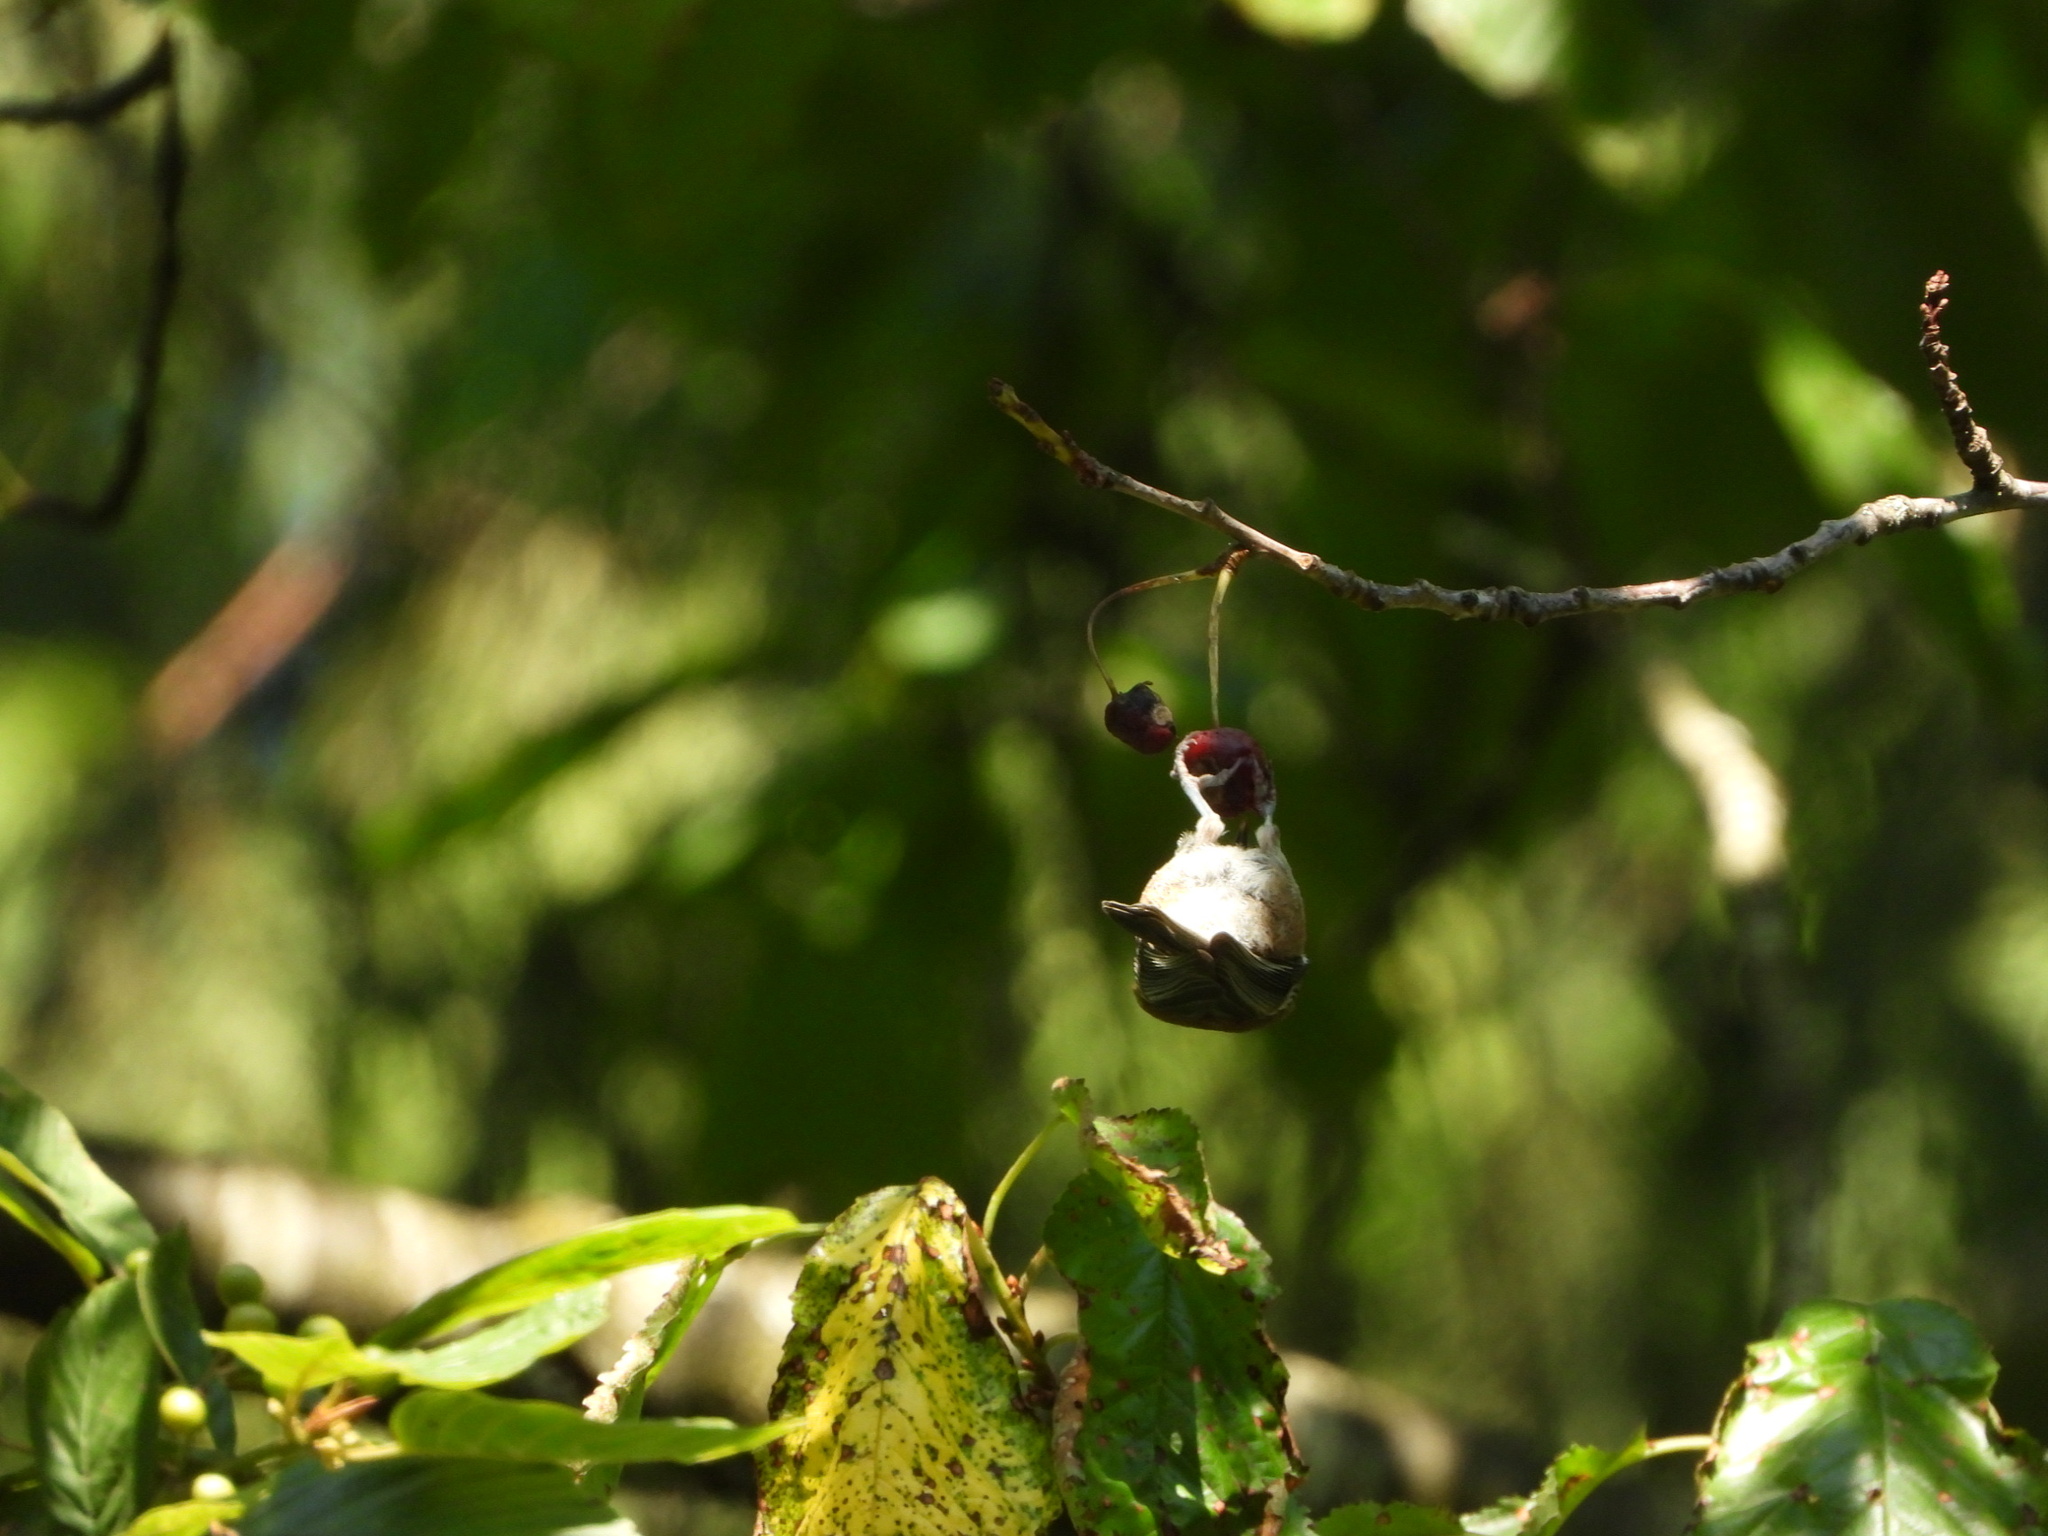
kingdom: Animalia
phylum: Chordata
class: Aves
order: Passeriformes
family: Paridae
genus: Poecile
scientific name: Poecile rufescens
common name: Chestnut-backed chickadee
